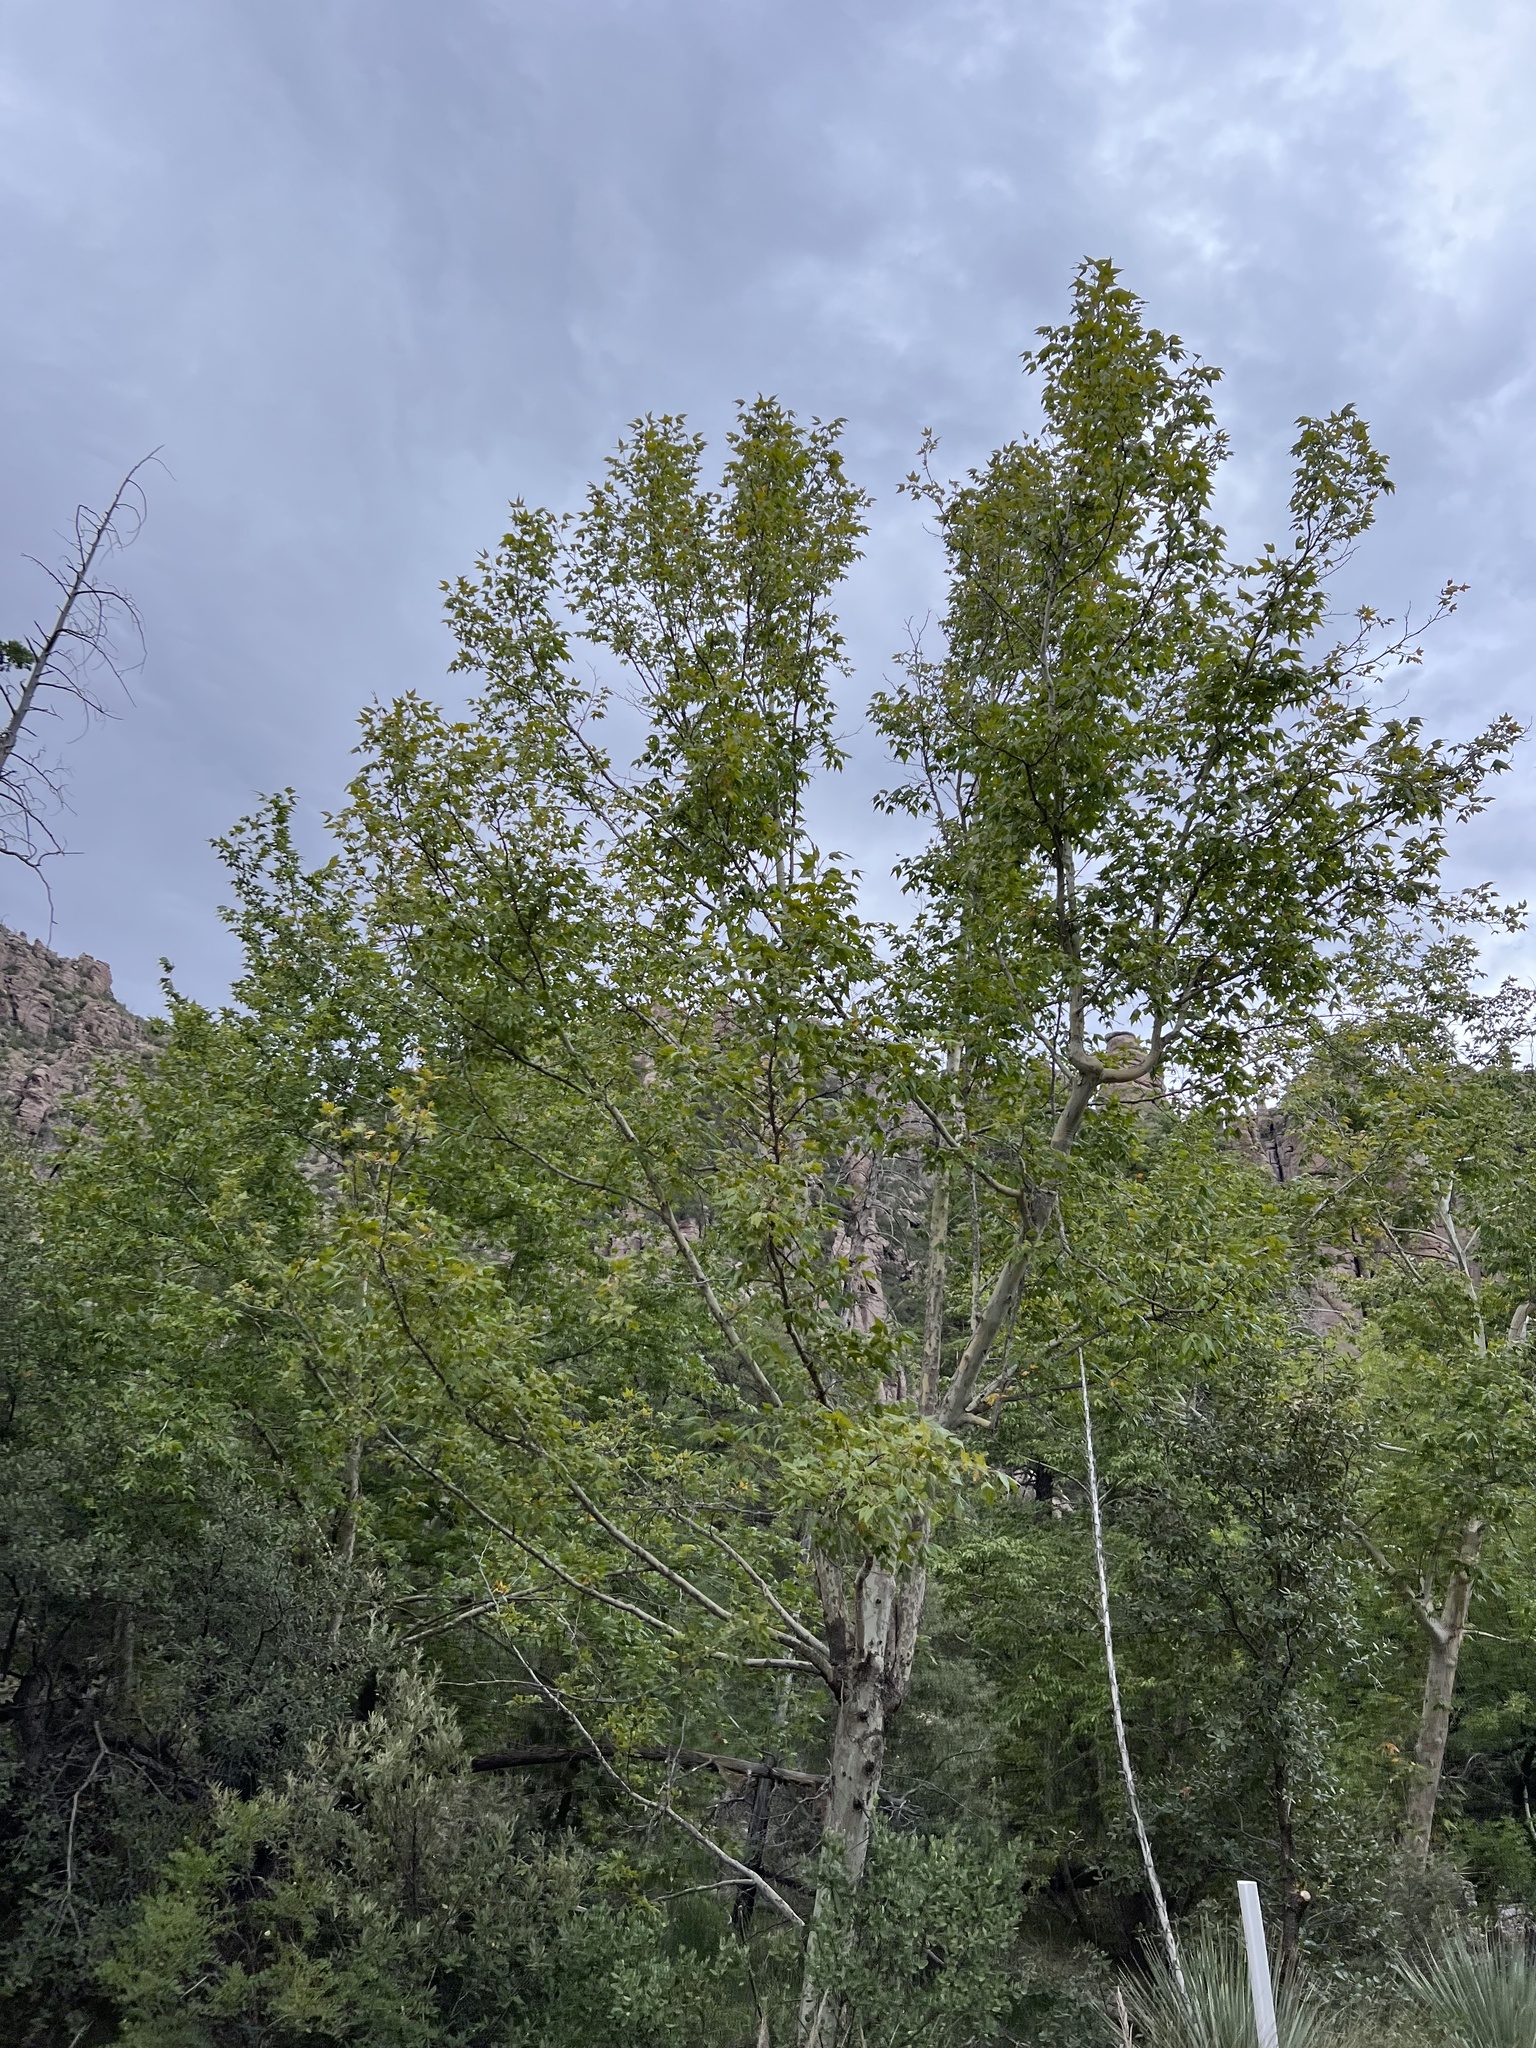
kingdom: Plantae
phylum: Tracheophyta
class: Magnoliopsida
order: Proteales
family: Platanaceae
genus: Platanus
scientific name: Platanus wrightii
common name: Arizona sycamore
